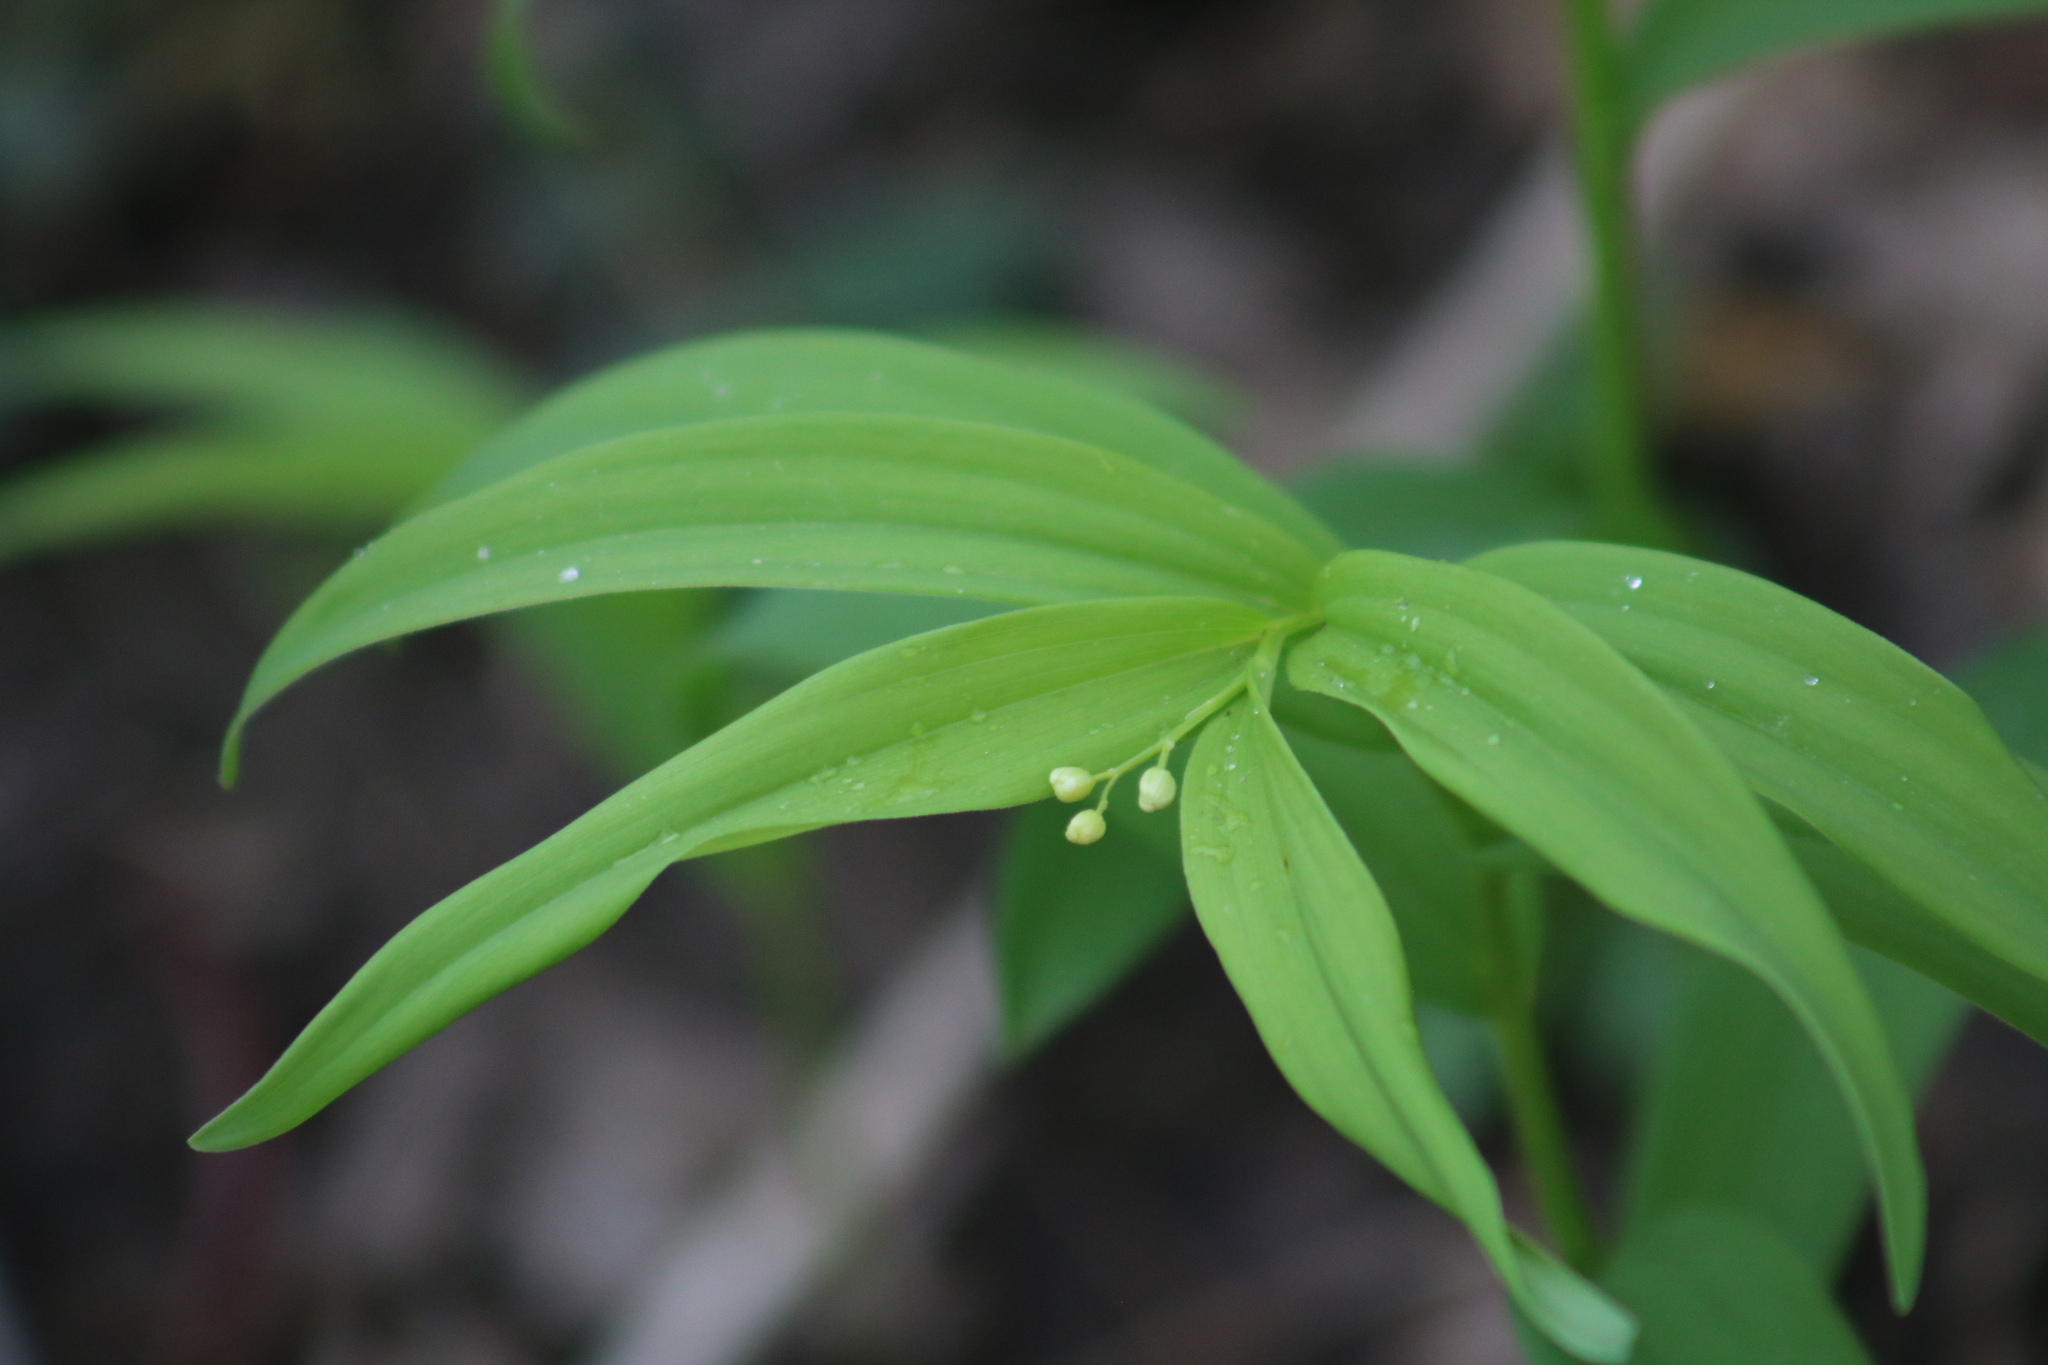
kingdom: Plantae
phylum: Tracheophyta
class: Liliopsida
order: Asparagales
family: Asparagaceae
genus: Maianthemum
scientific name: Maianthemum stellatum
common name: Little false solomon's seal
